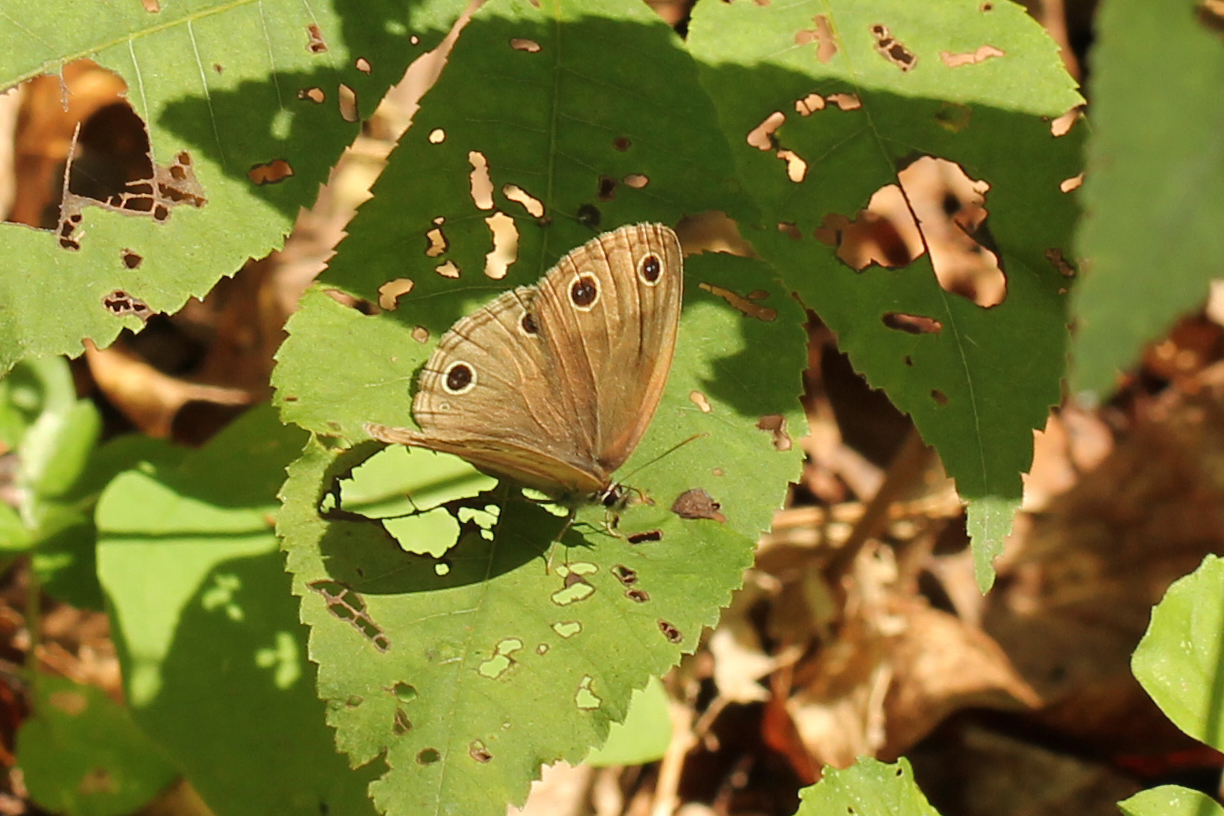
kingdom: Animalia
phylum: Arthropoda
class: Insecta
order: Lepidoptera
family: Nymphalidae
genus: Euptychia
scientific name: Euptychia cymela
